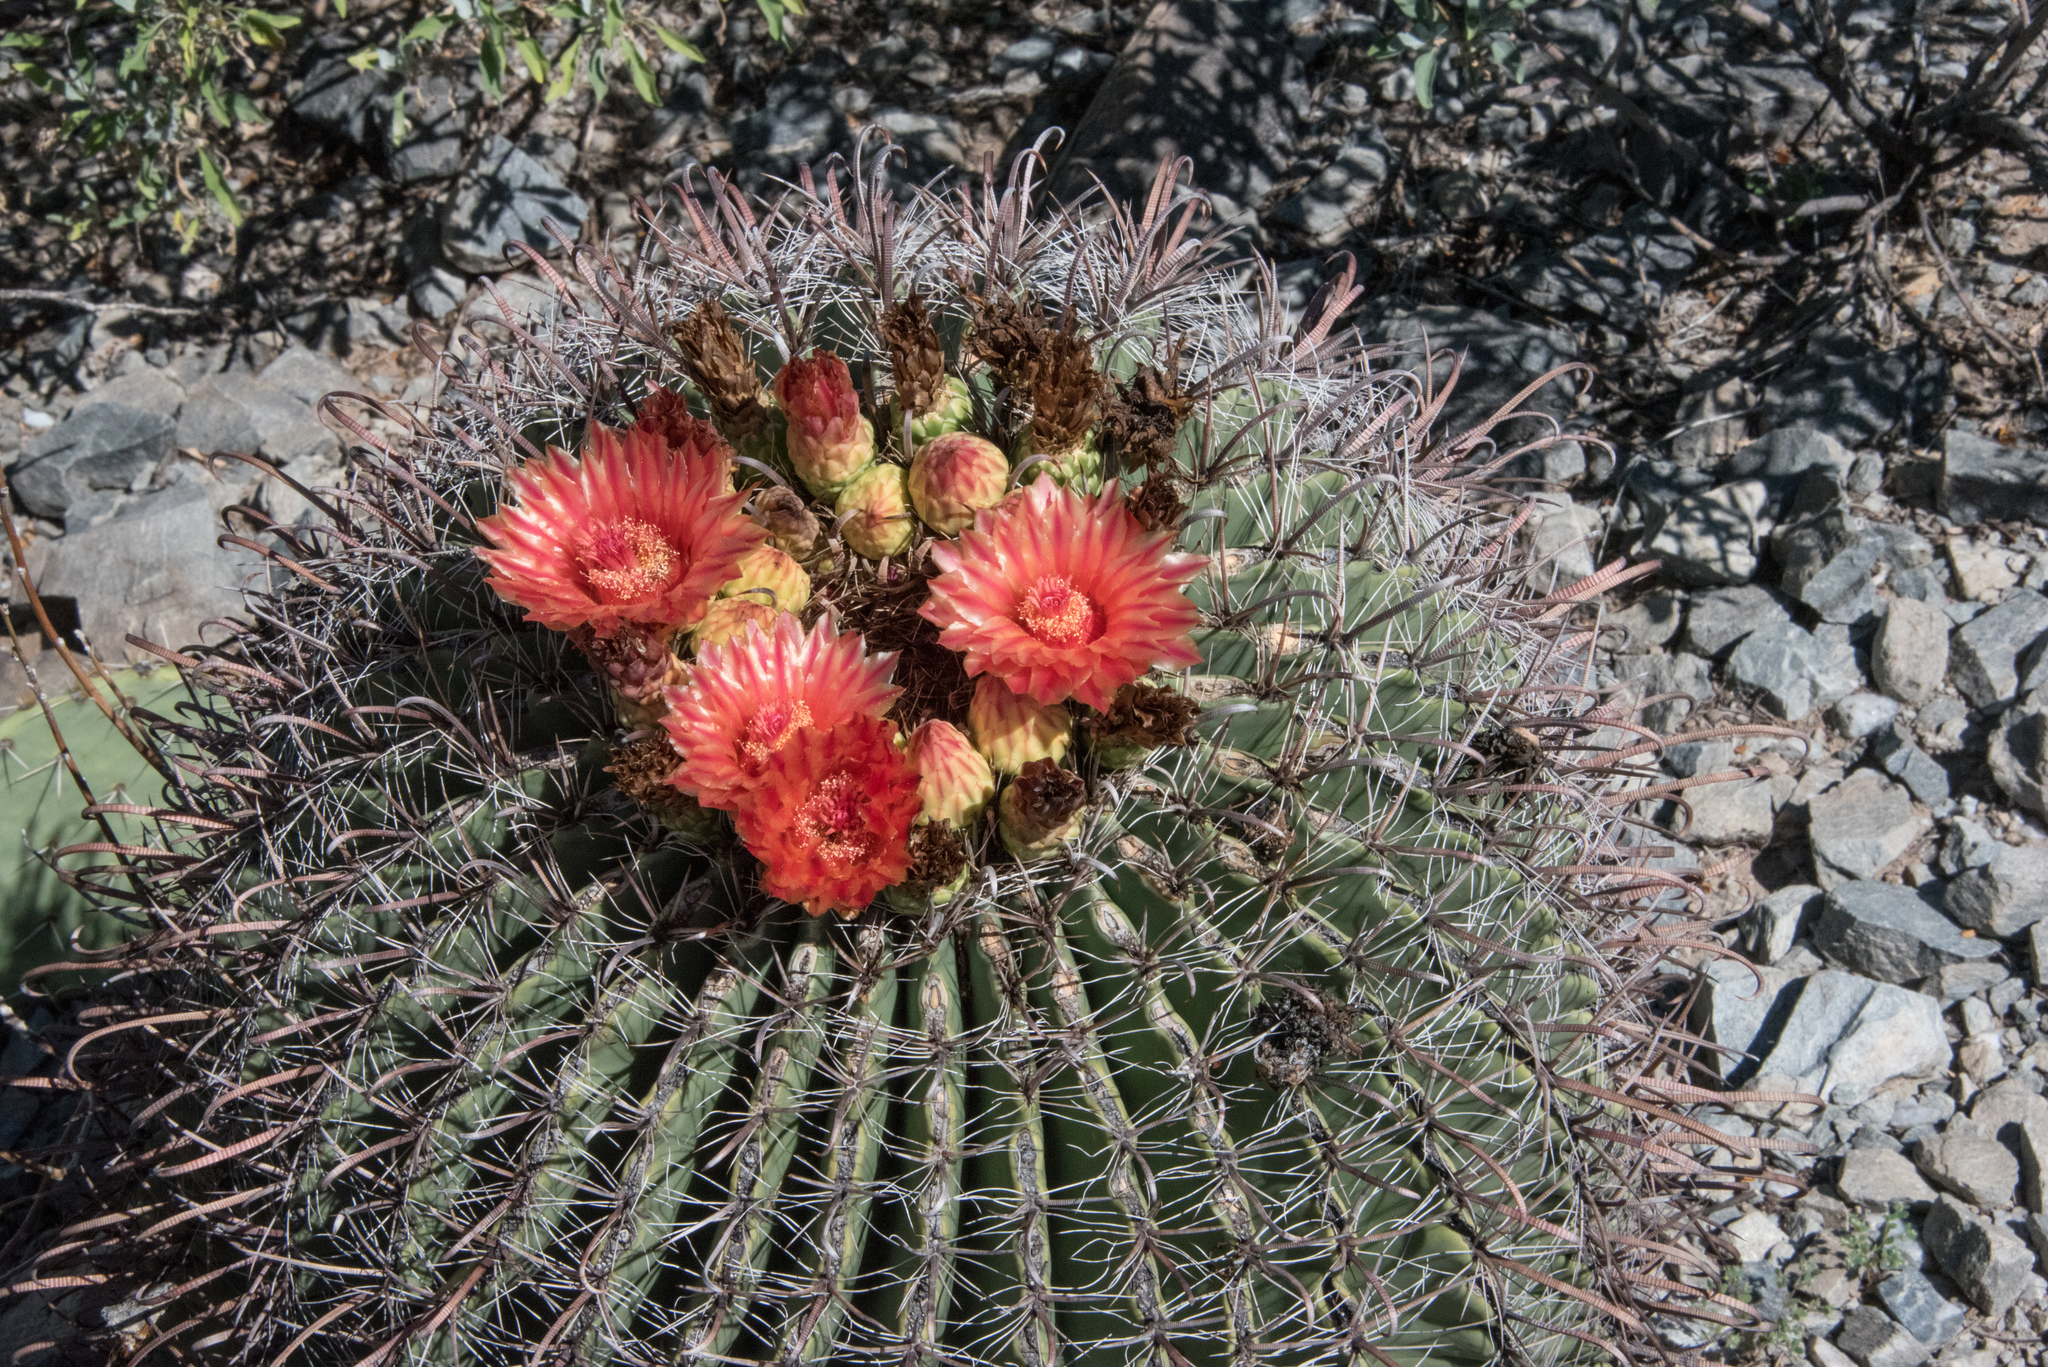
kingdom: Plantae
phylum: Tracheophyta
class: Magnoliopsida
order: Caryophyllales
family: Cactaceae
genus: Ferocactus
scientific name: Ferocactus wislizeni
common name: Candy barrel cactus
